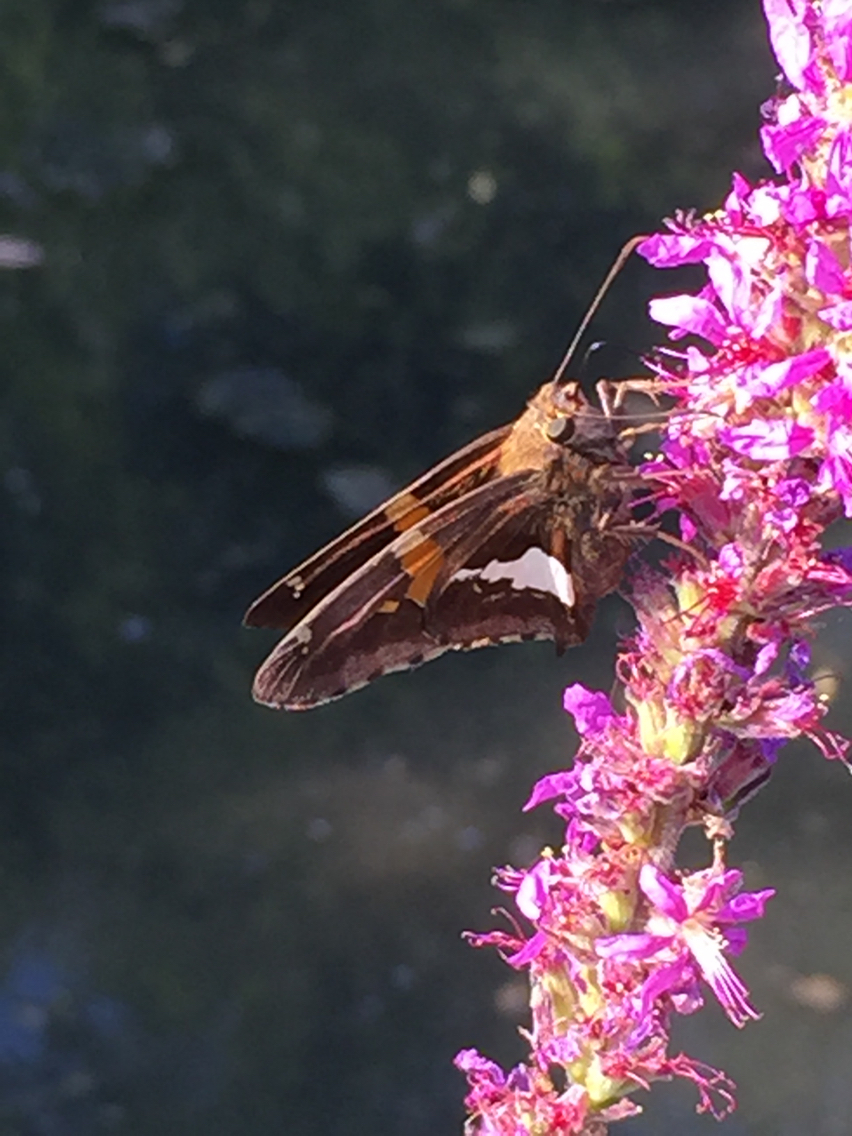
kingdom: Animalia
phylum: Arthropoda
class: Insecta
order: Lepidoptera
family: Hesperiidae
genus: Epargyreus
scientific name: Epargyreus clarus
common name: Silver-spotted skipper
